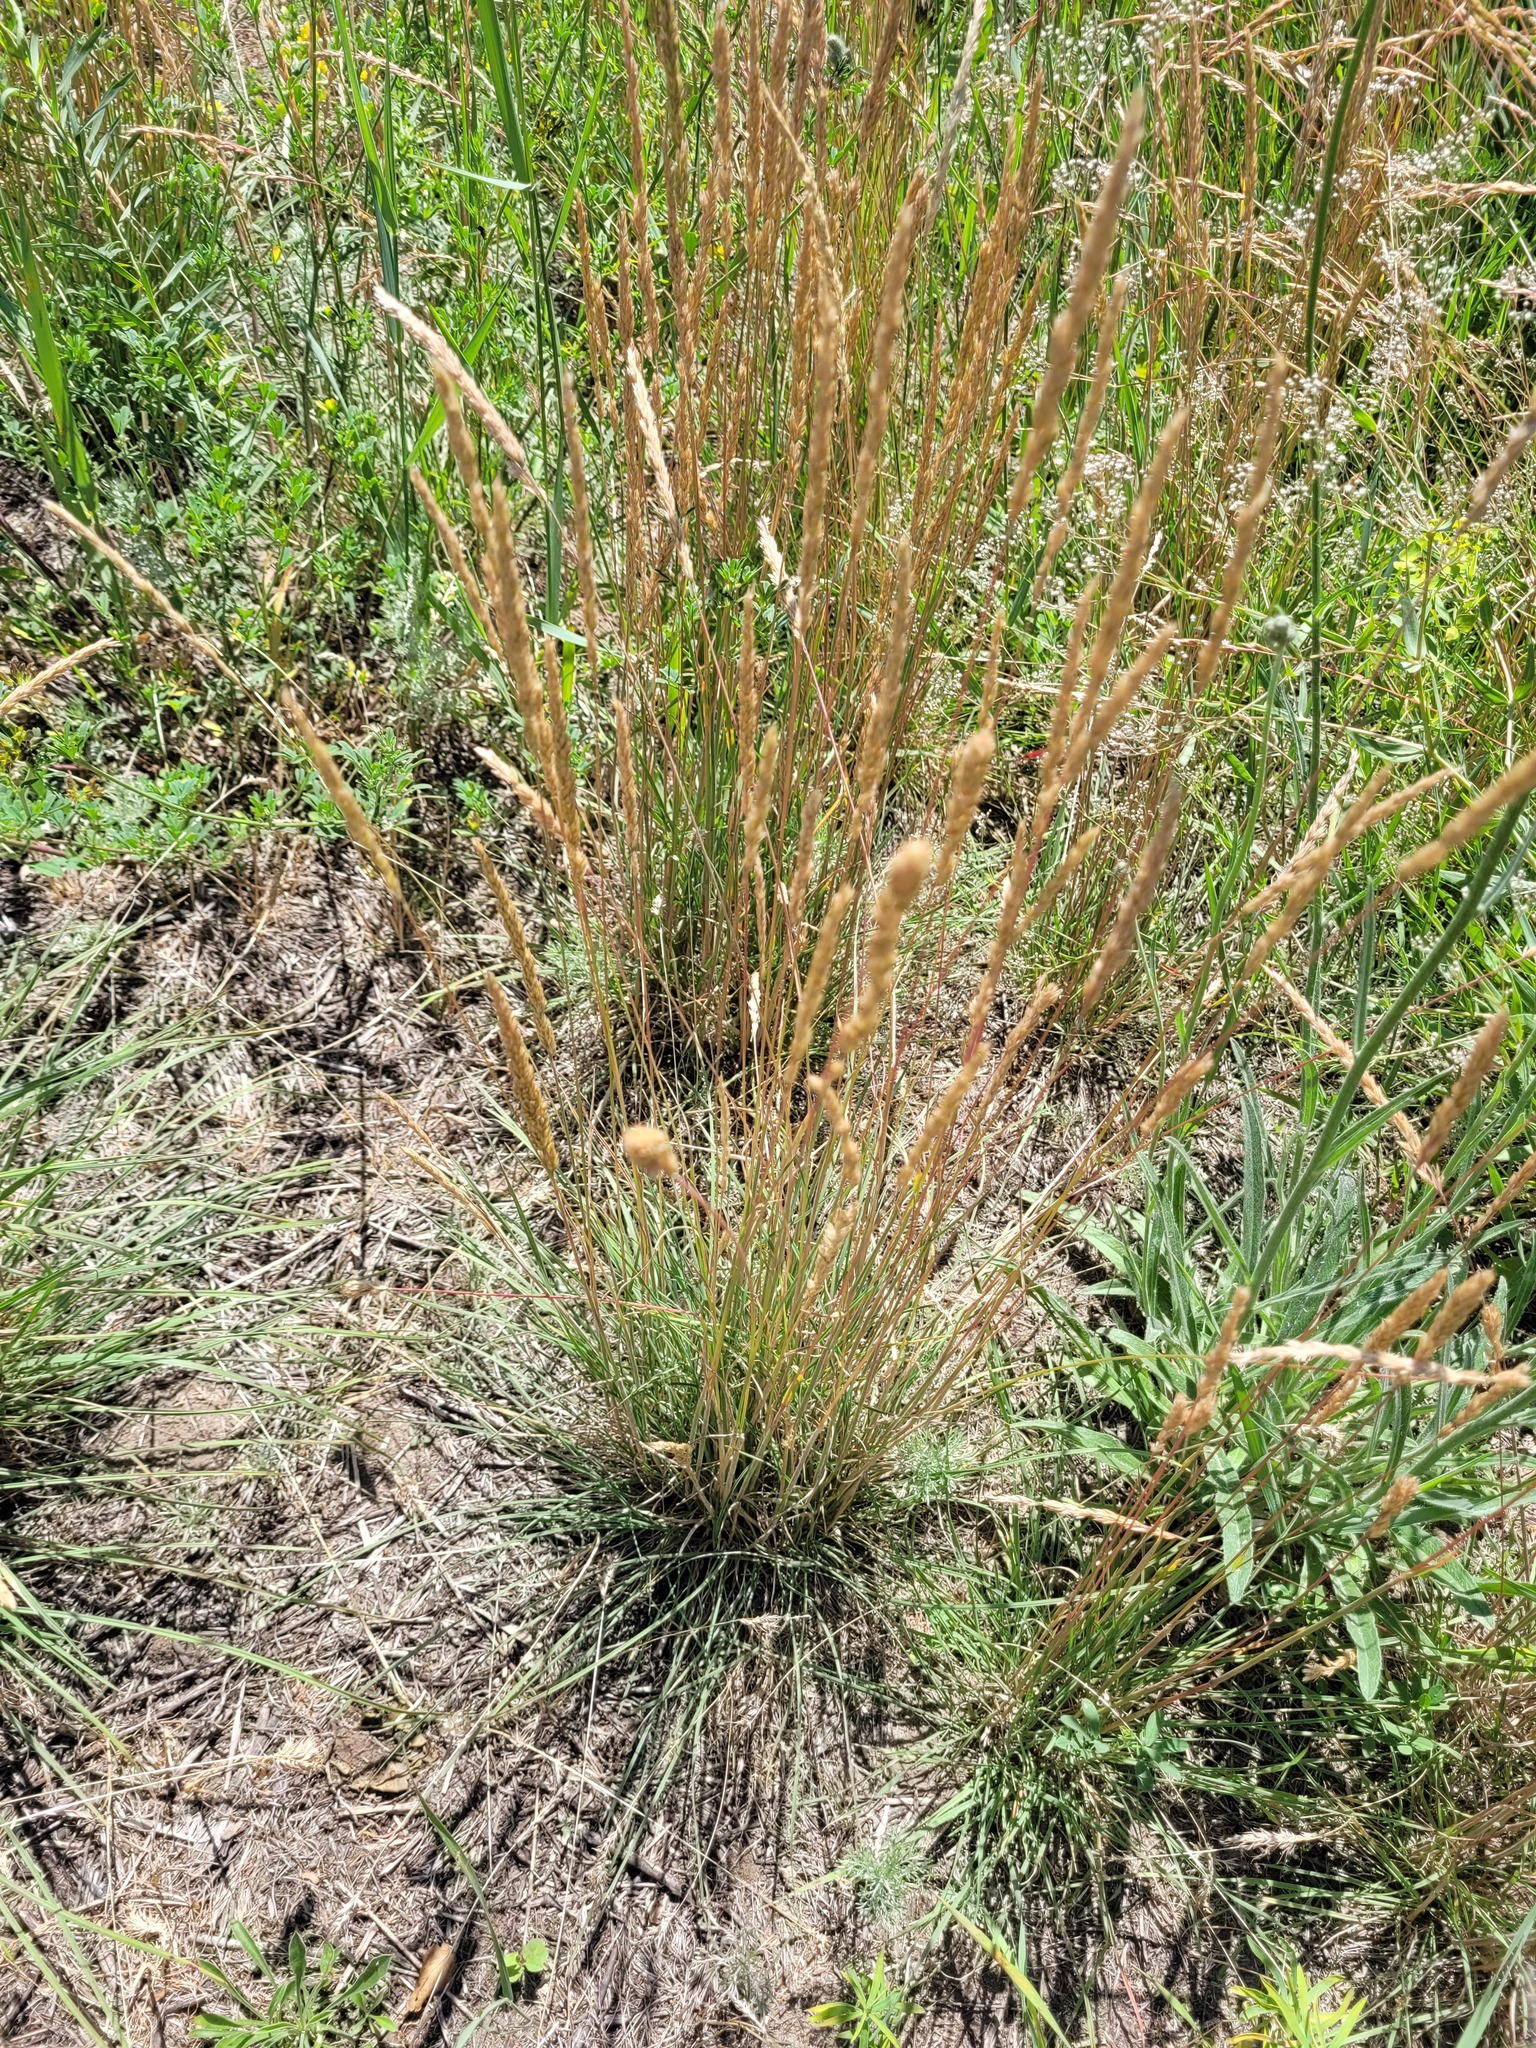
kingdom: Plantae
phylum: Tracheophyta
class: Liliopsida
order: Poales
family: Poaceae
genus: Koeleria
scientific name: Koeleria macrantha
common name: Crested hair-grass
